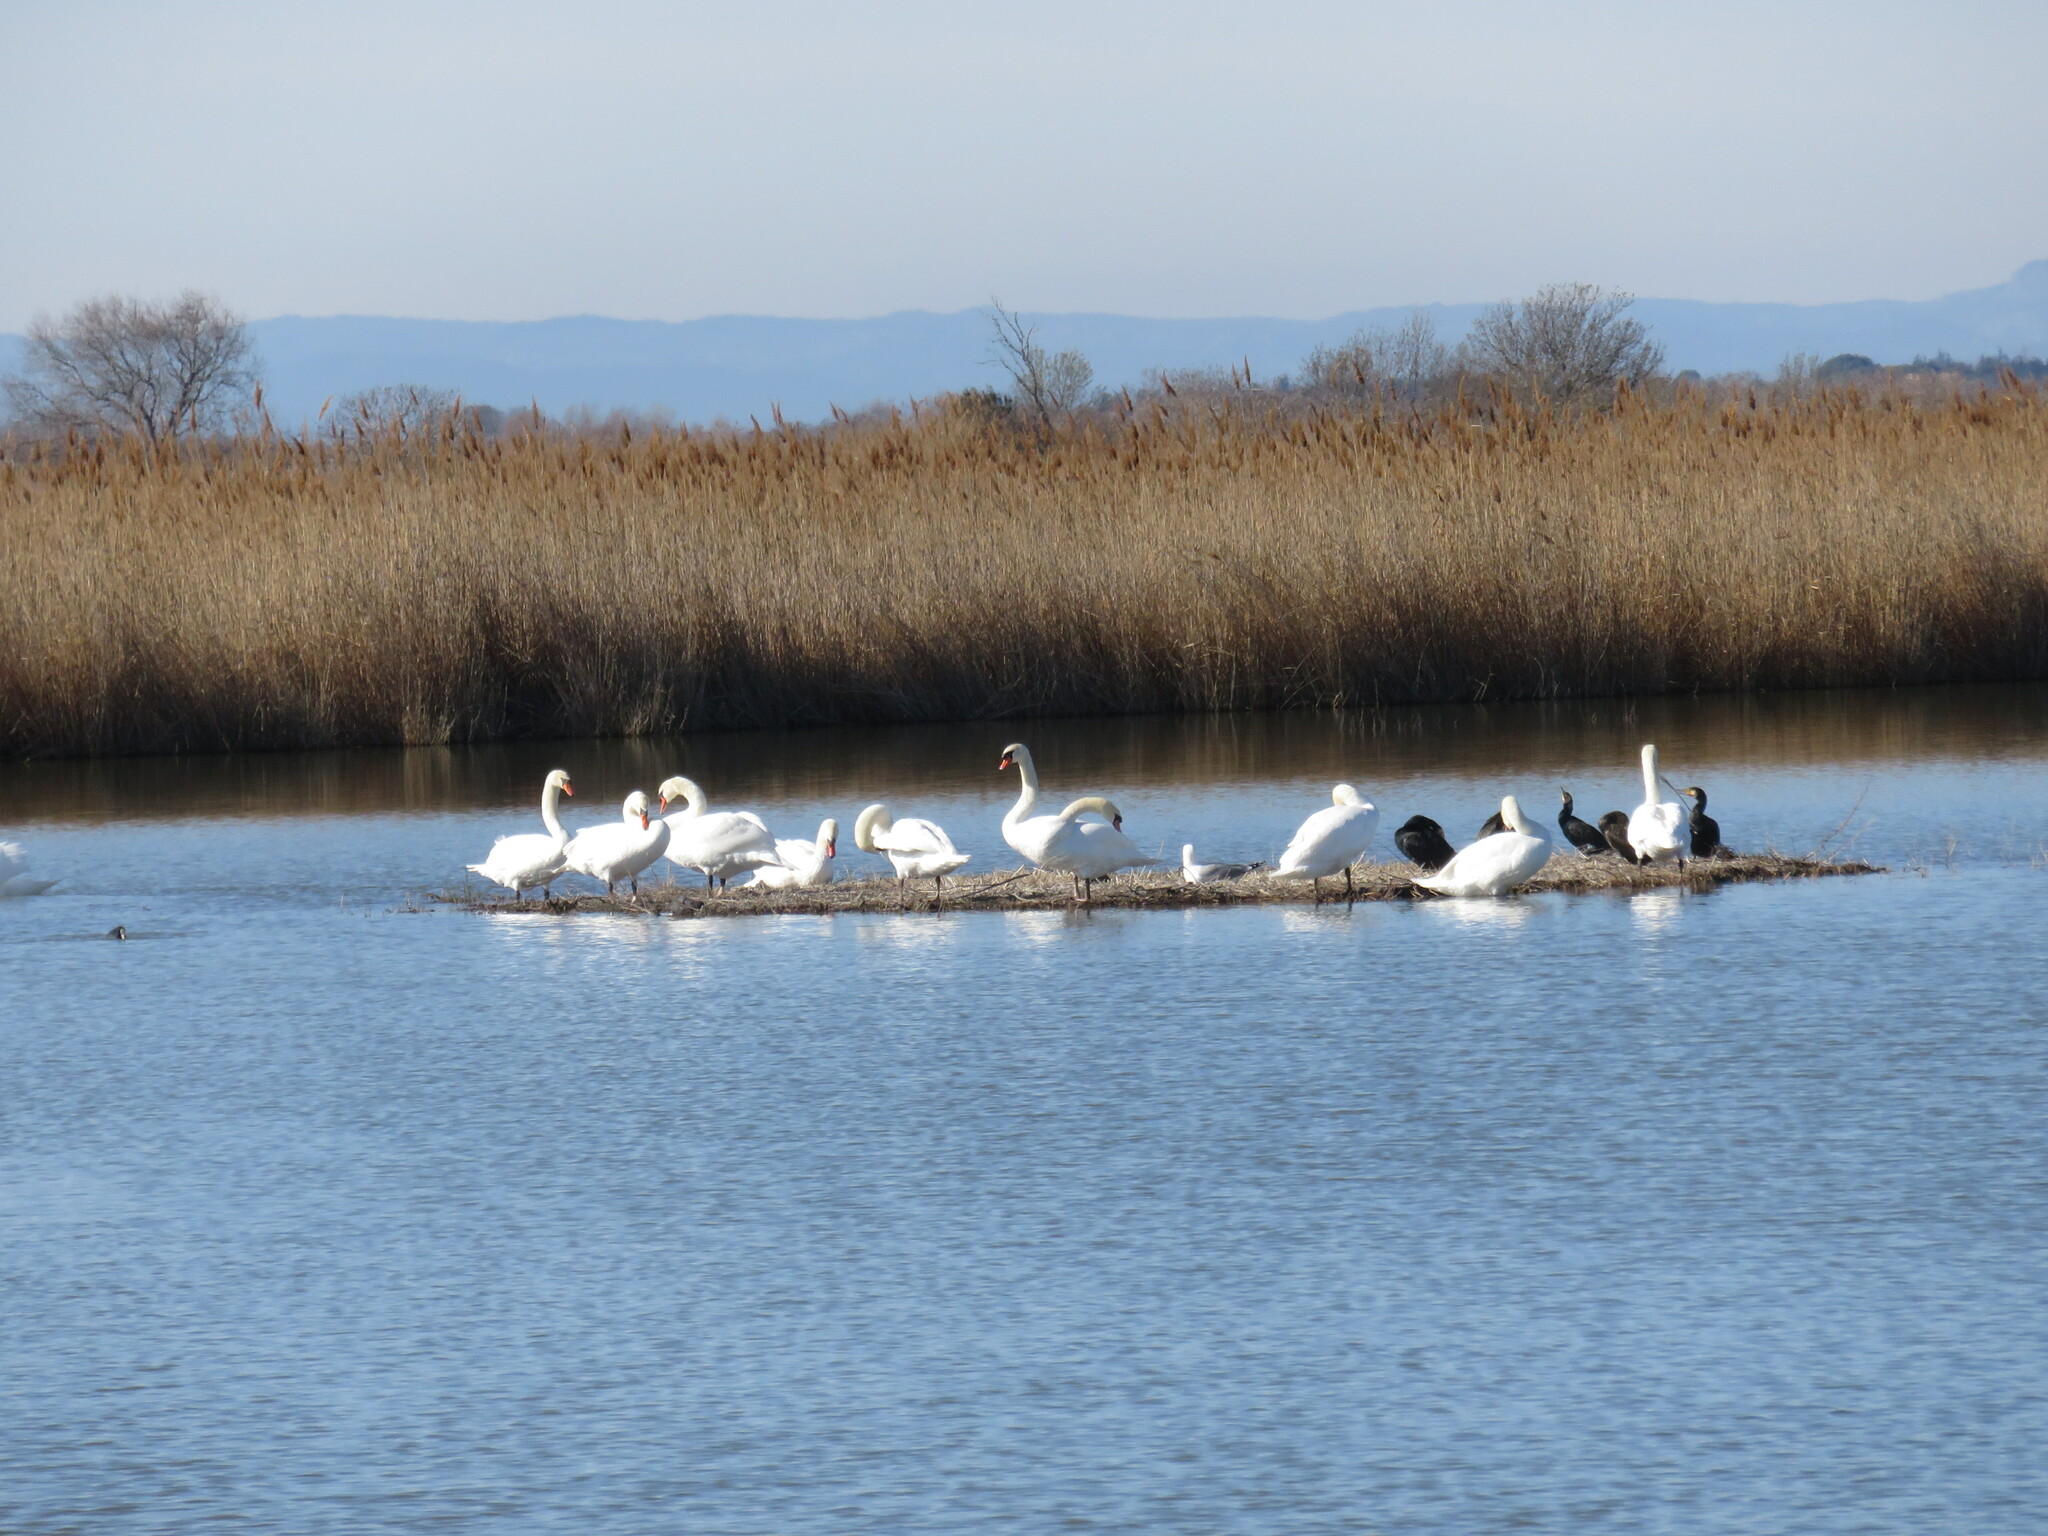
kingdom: Animalia
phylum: Chordata
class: Aves
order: Anseriformes
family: Anatidae
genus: Cygnus
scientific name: Cygnus olor
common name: Mute swan
